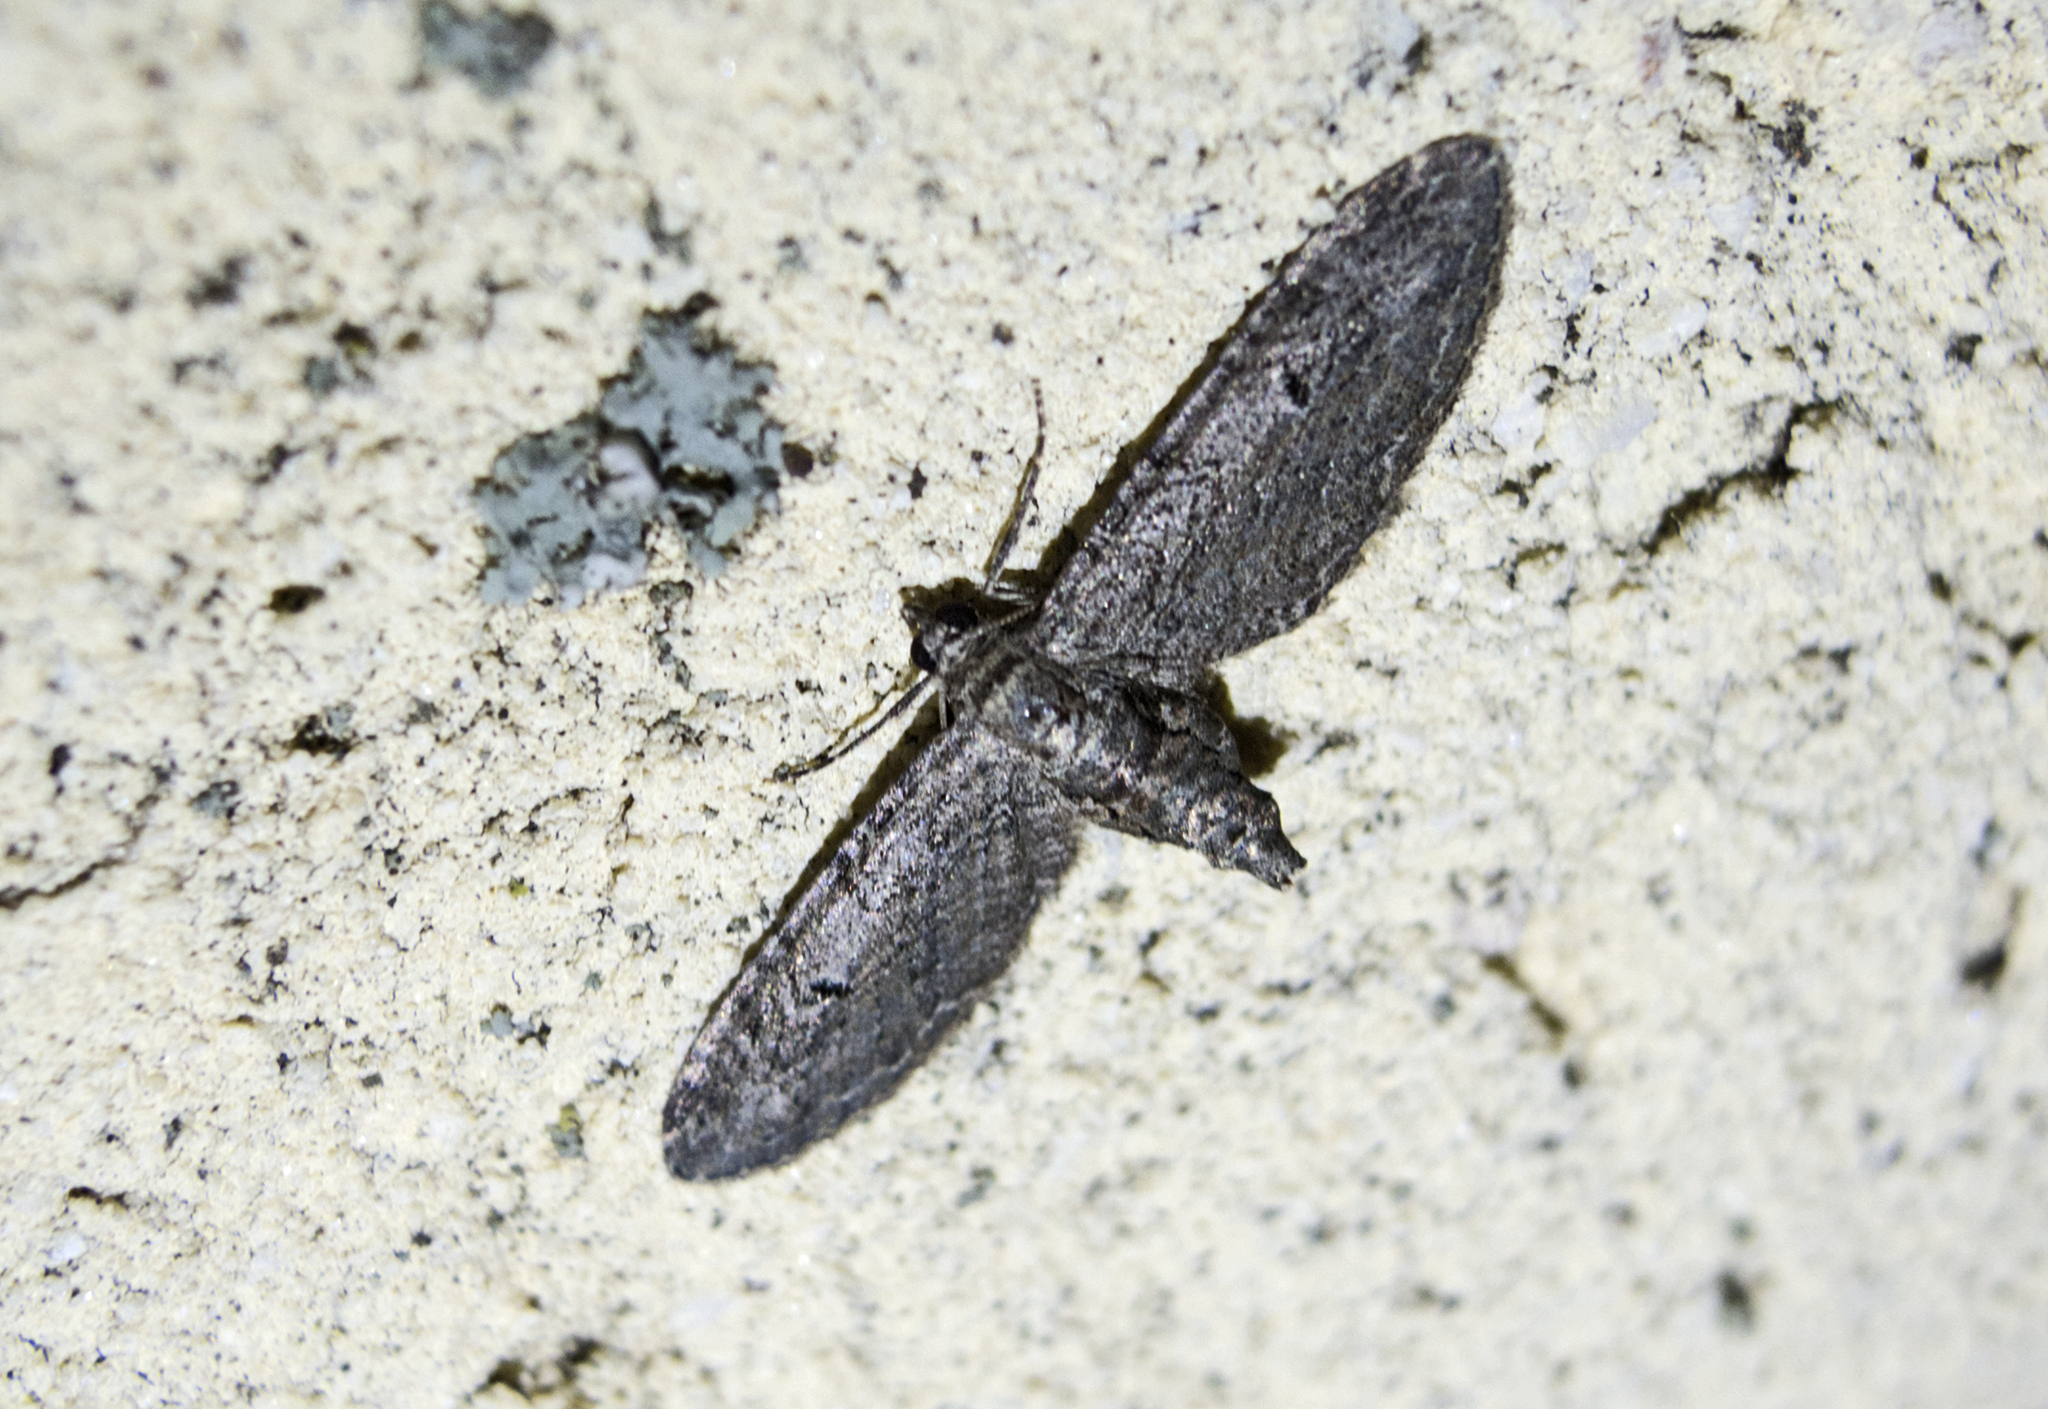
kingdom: Animalia
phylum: Arthropoda
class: Insecta
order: Lepidoptera
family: Geometridae
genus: Eupithecia
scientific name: Eupithecia innotata
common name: Angle-barred pug
